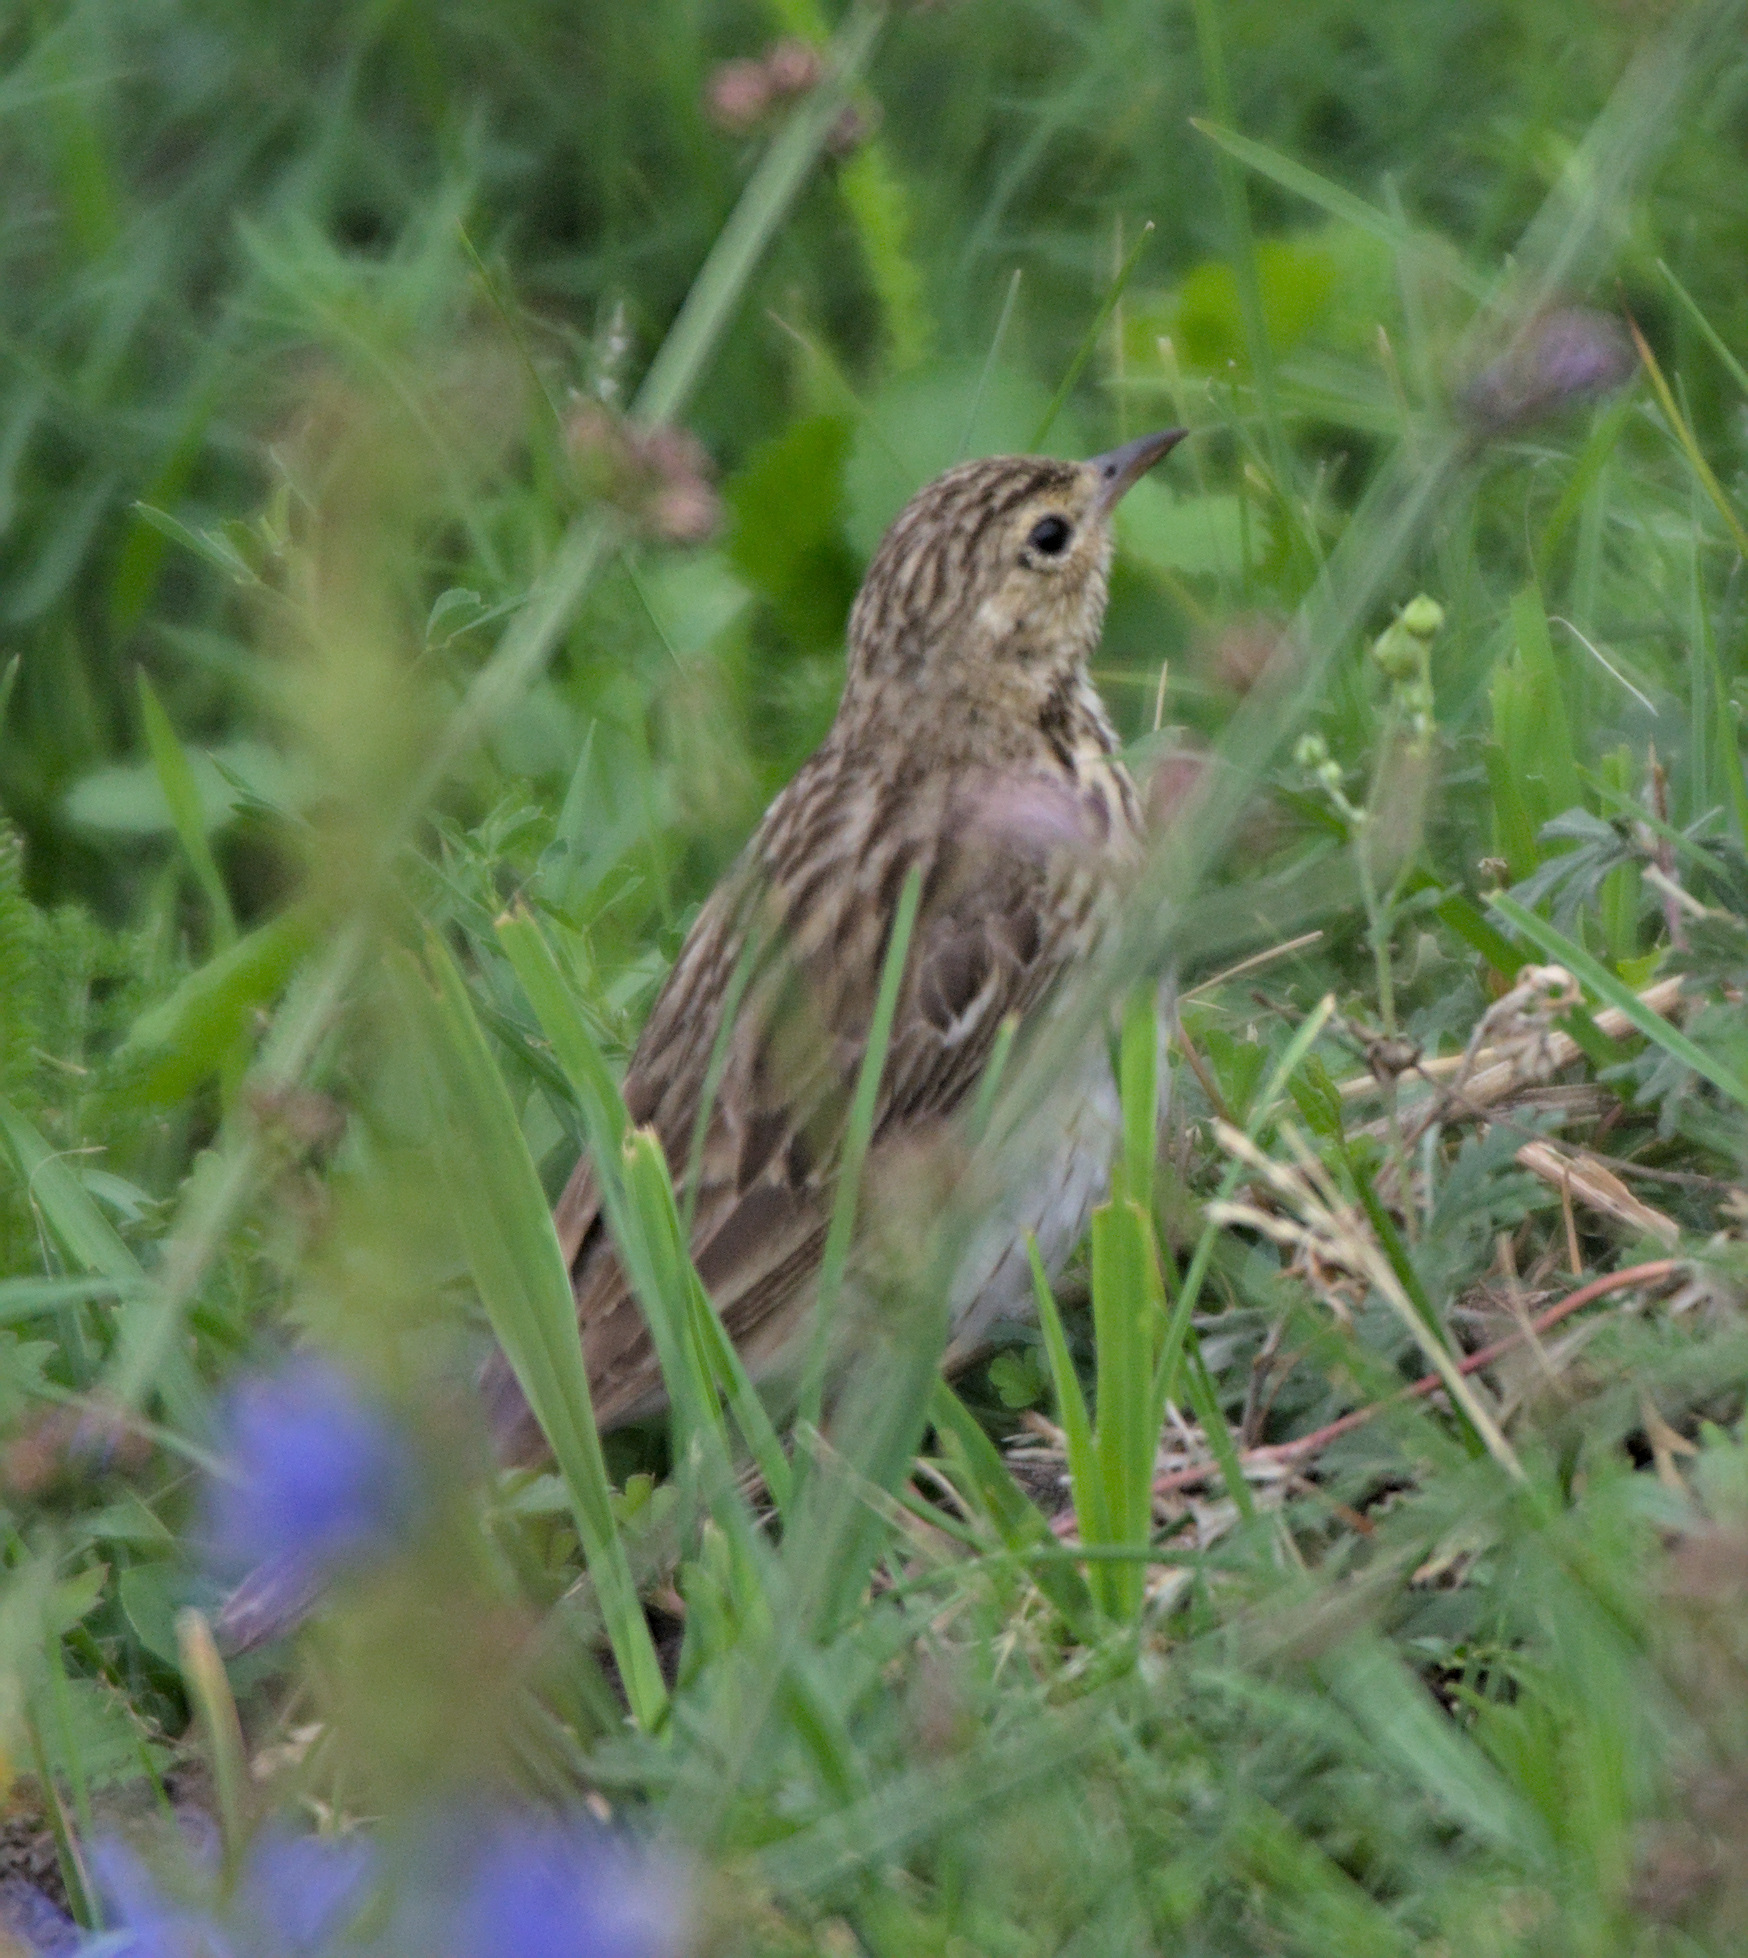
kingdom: Animalia
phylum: Chordata
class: Aves
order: Passeriformes
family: Motacillidae
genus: Anthus
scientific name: Anthus trivialis
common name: Tree pipit
